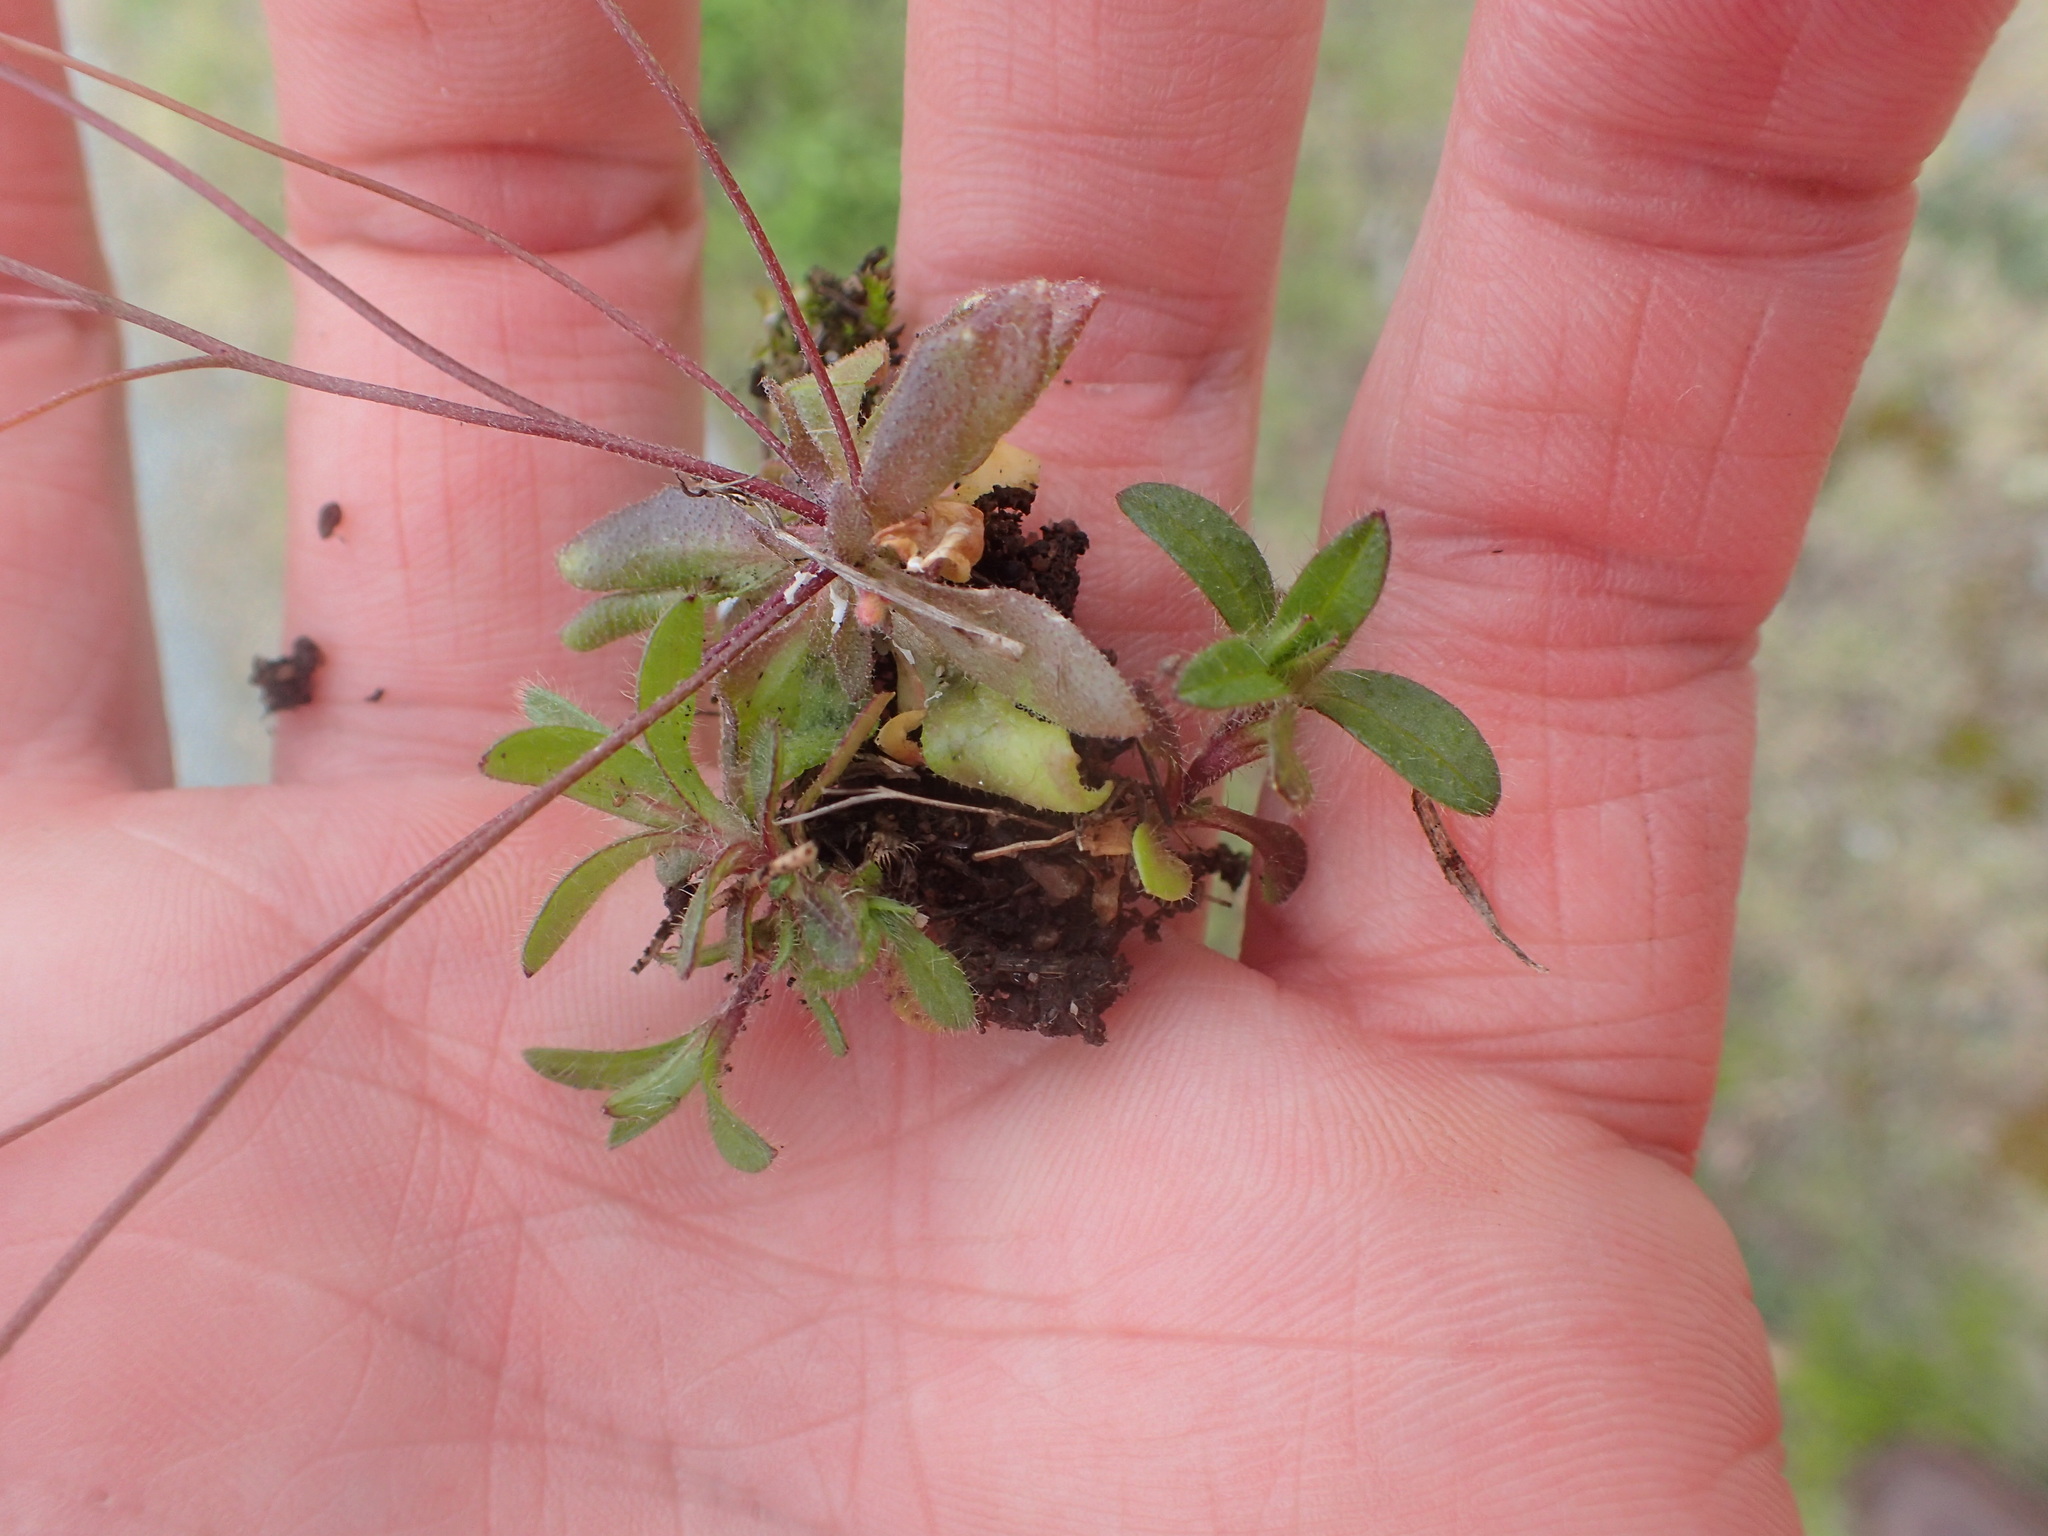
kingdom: Plantae
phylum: Tracheophyta
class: Magnoliopsida
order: Brassicales
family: Brassicaceae
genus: Draba
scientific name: Draba verna
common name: Spring draba
